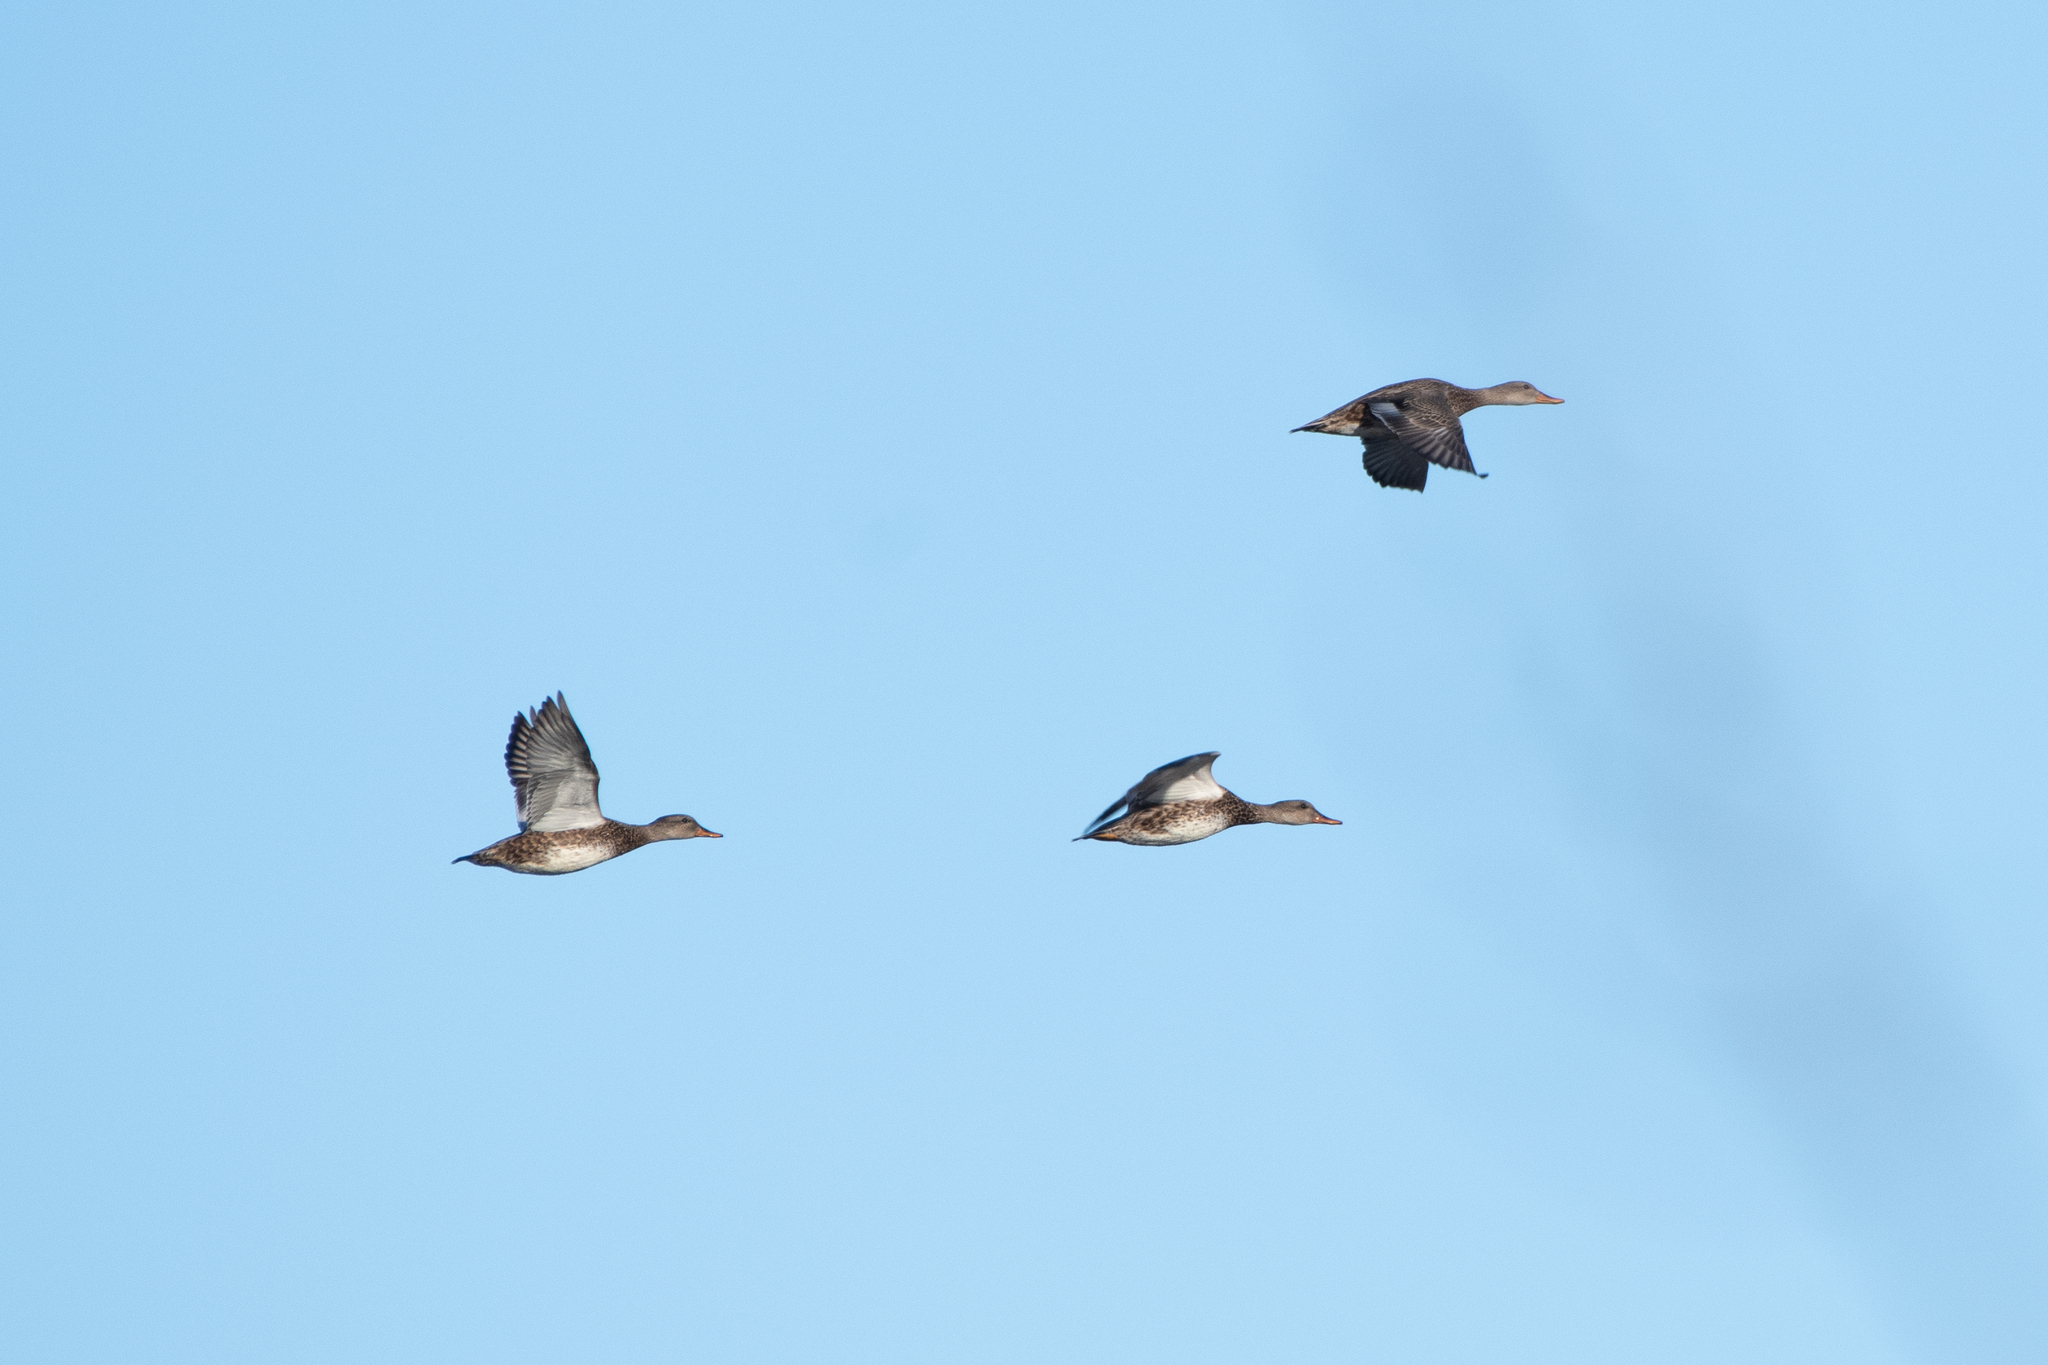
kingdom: Animalia
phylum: Chordata
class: Aves
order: Anseriformes
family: Anatidae
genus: Mareca
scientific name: Mareca strepera
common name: Gadwall
